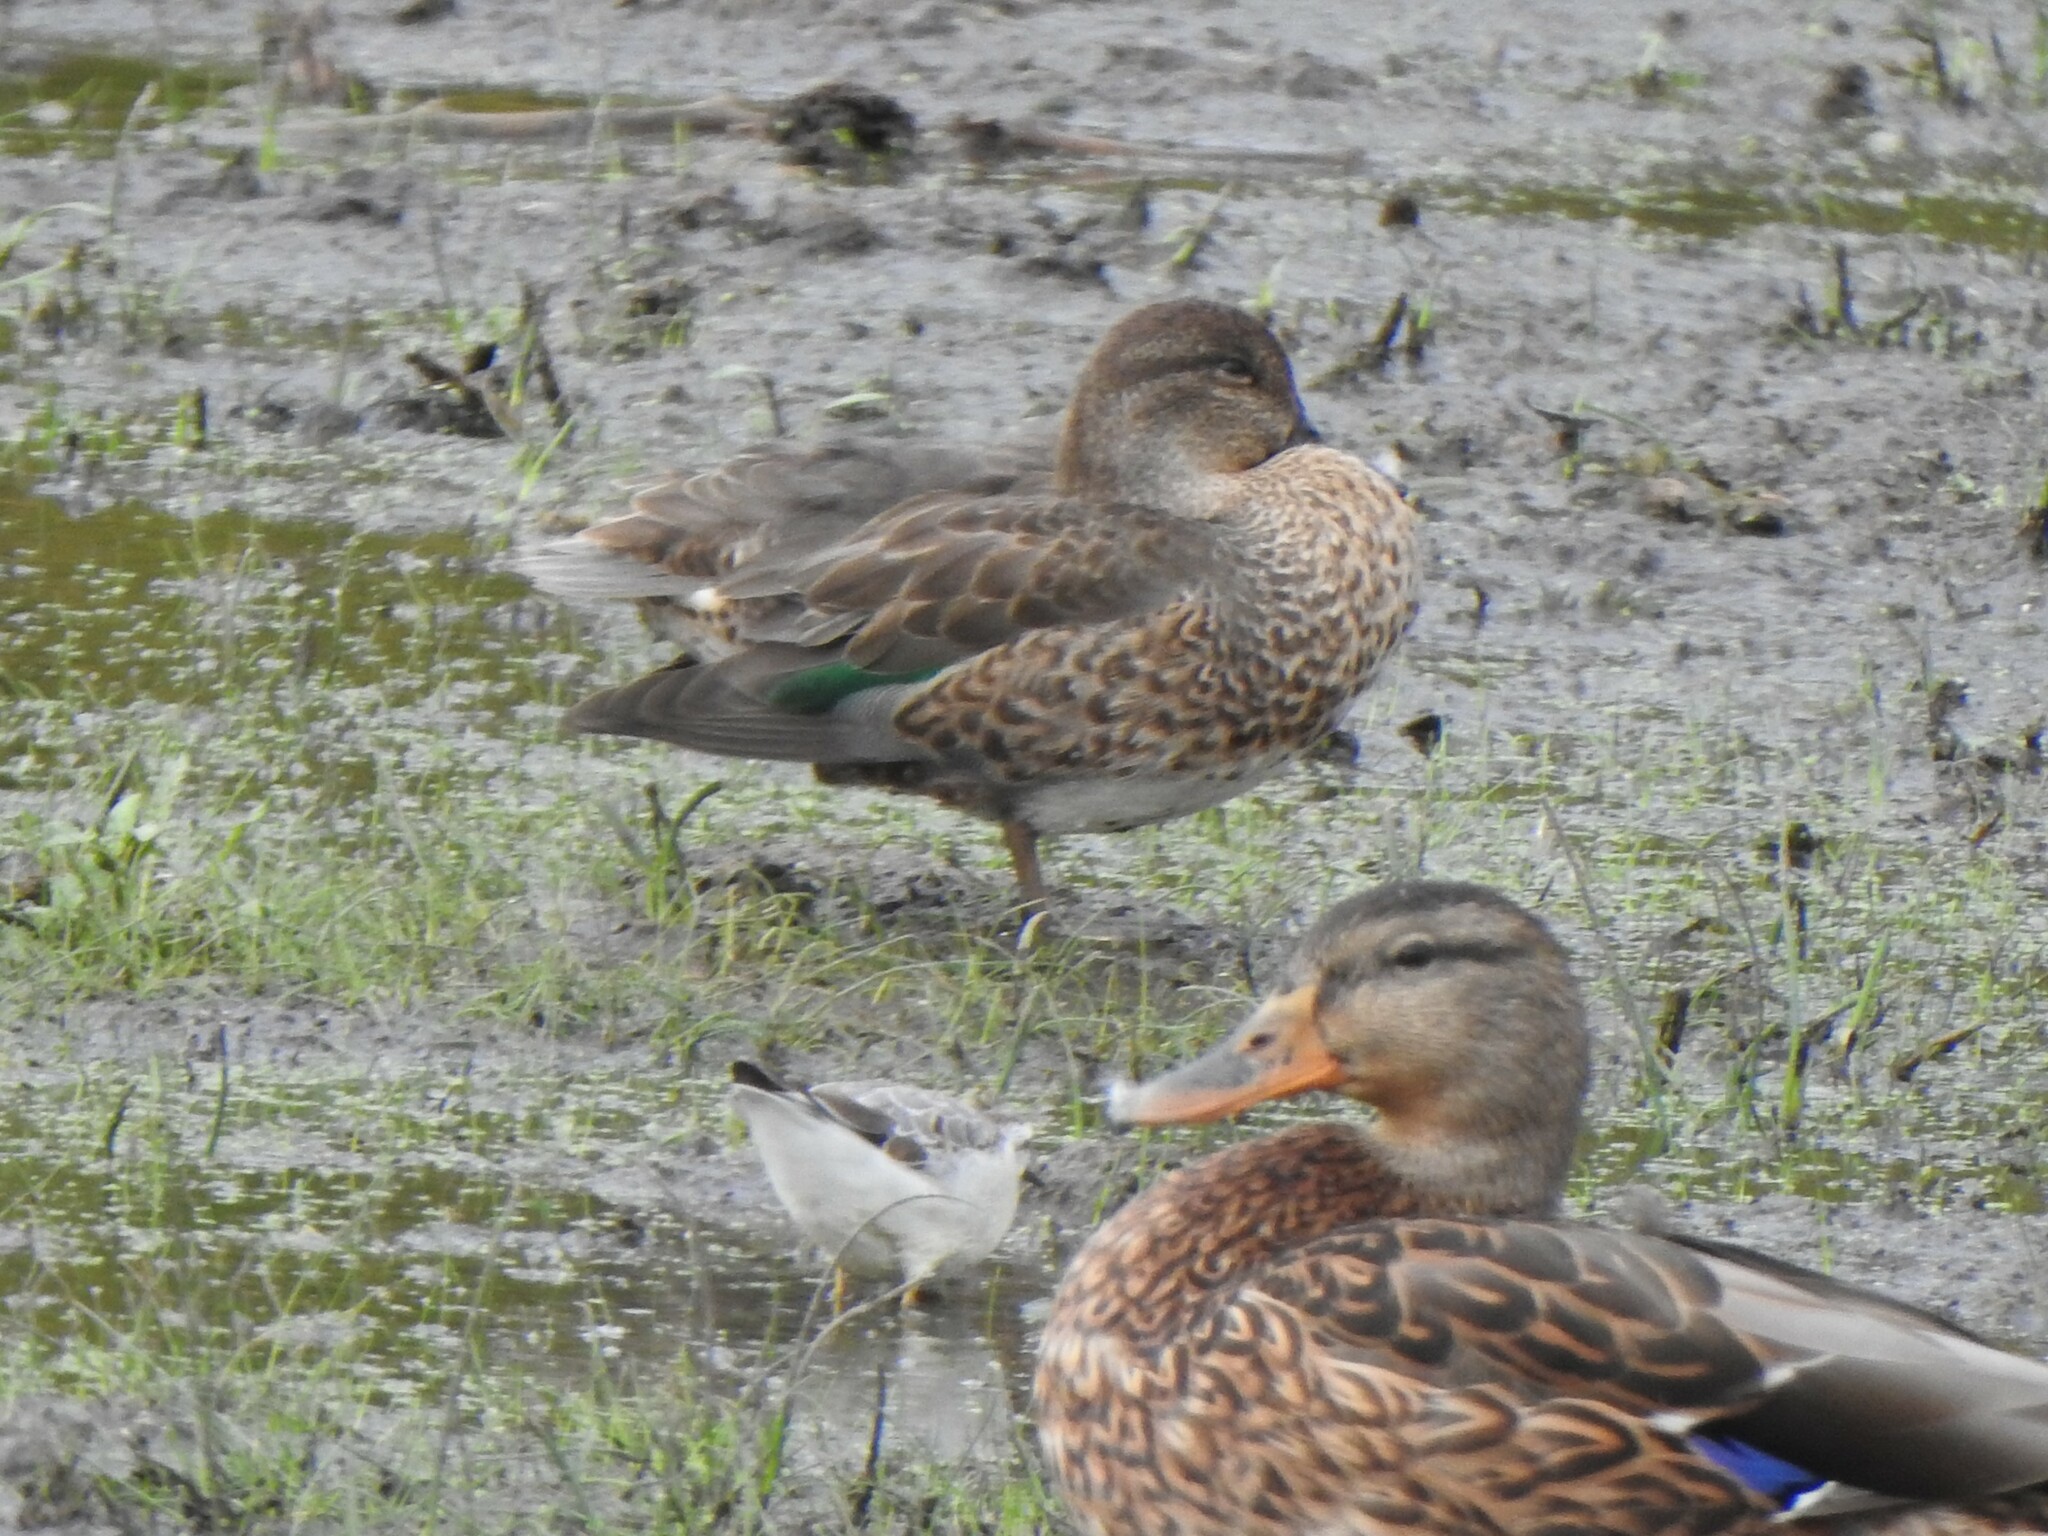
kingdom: Animalia
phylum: Chordata
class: Aves
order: Anseriformes
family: Anatidae
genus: Anas
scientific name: Anas crecca
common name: Eurasian teal
